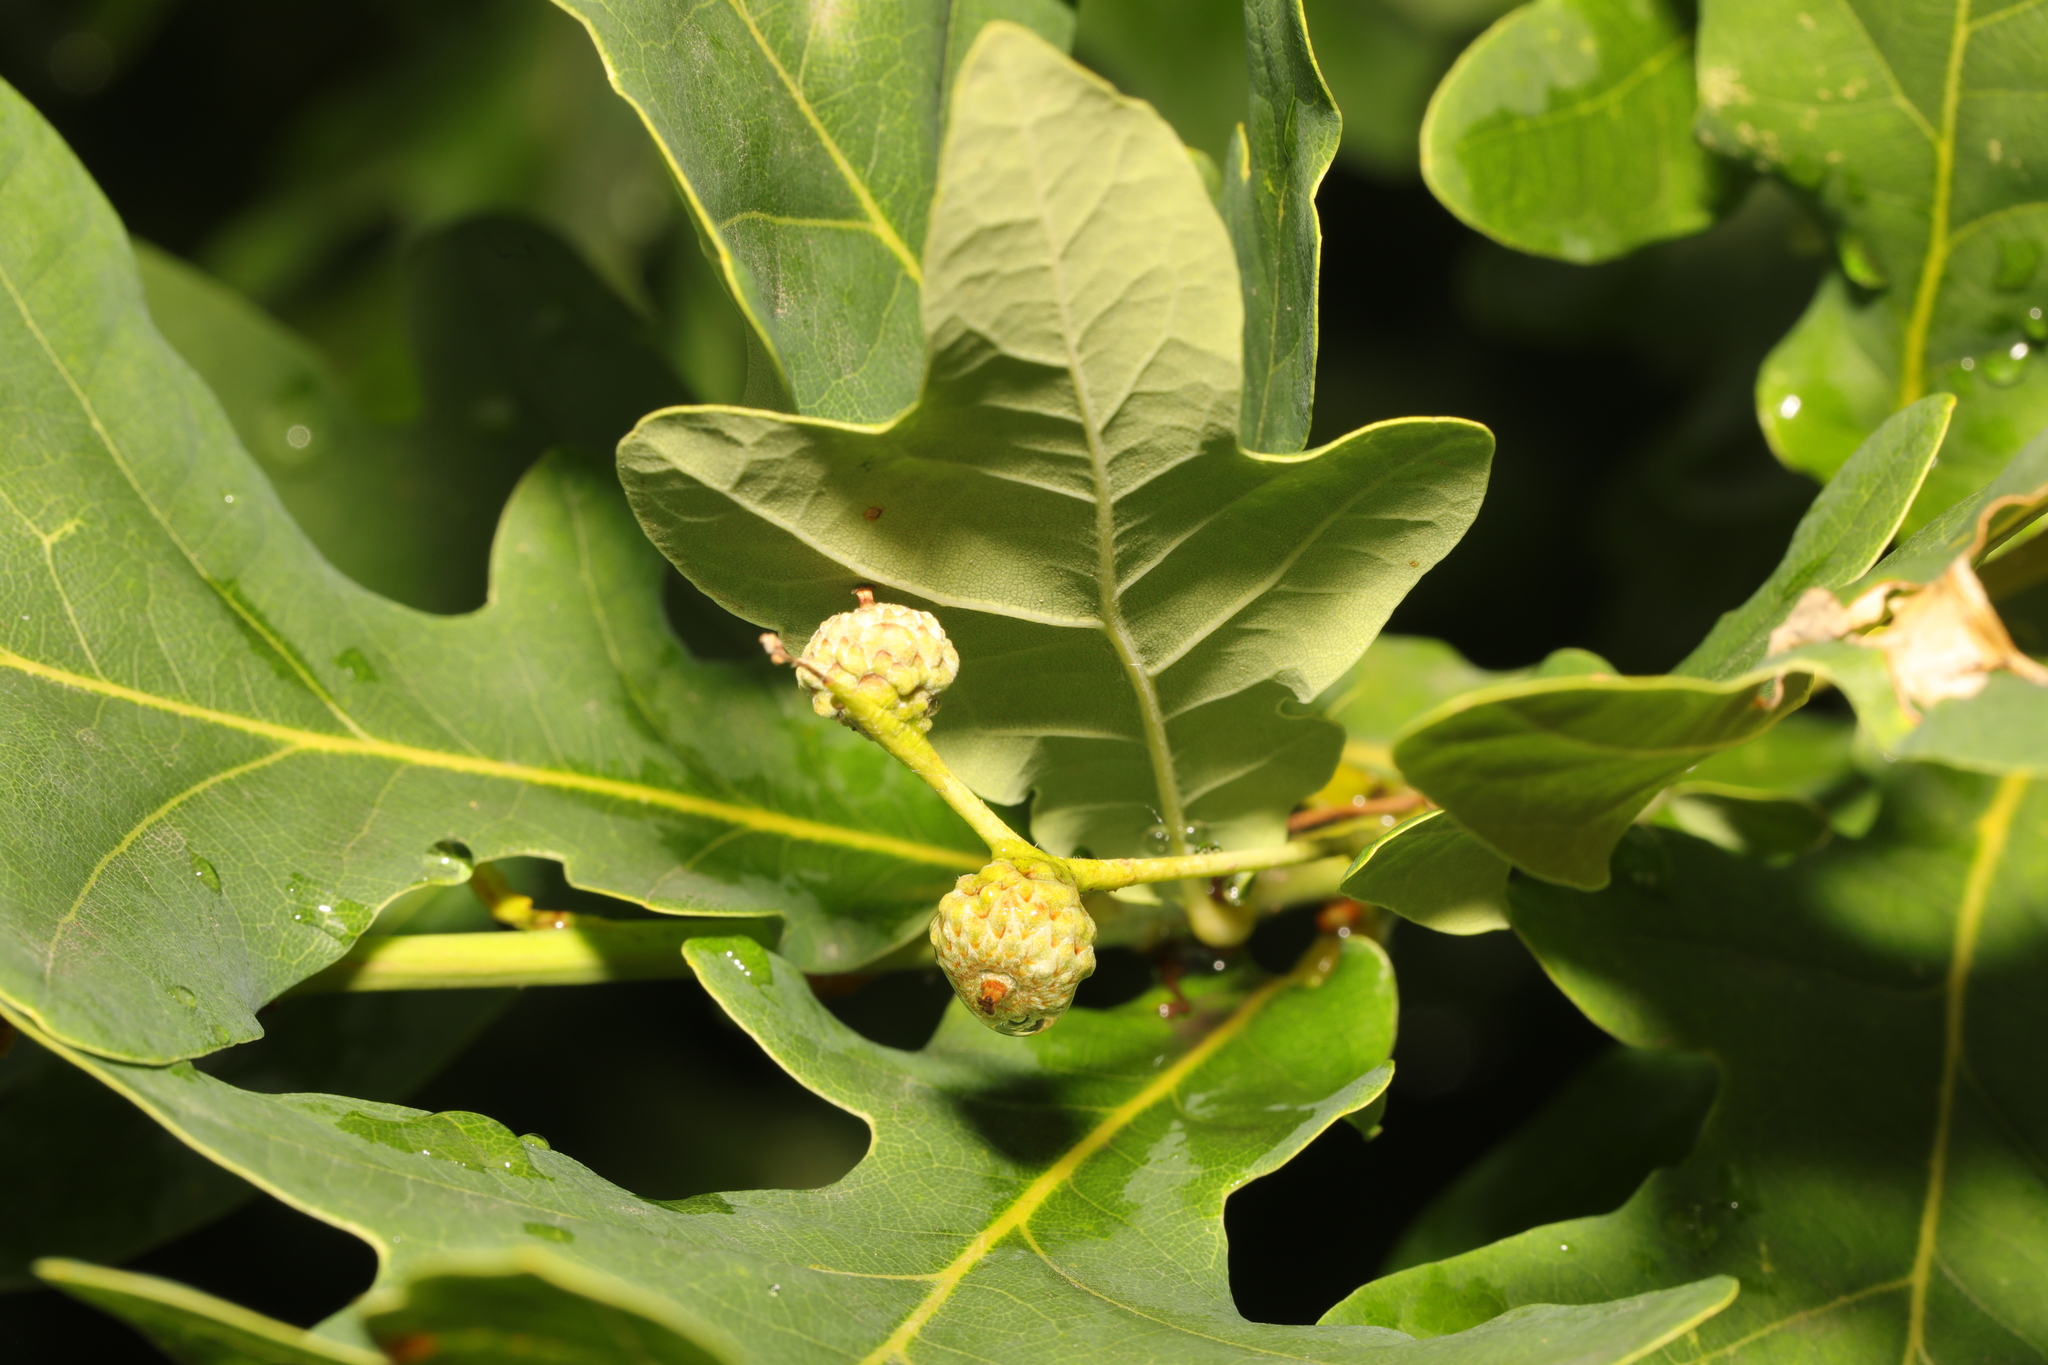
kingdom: Plantae
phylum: Tracheophyta
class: Magnoliopsida
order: Fagales
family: Fagaceae
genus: Quercus
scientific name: Quercus robur
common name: Pedunculate oak
